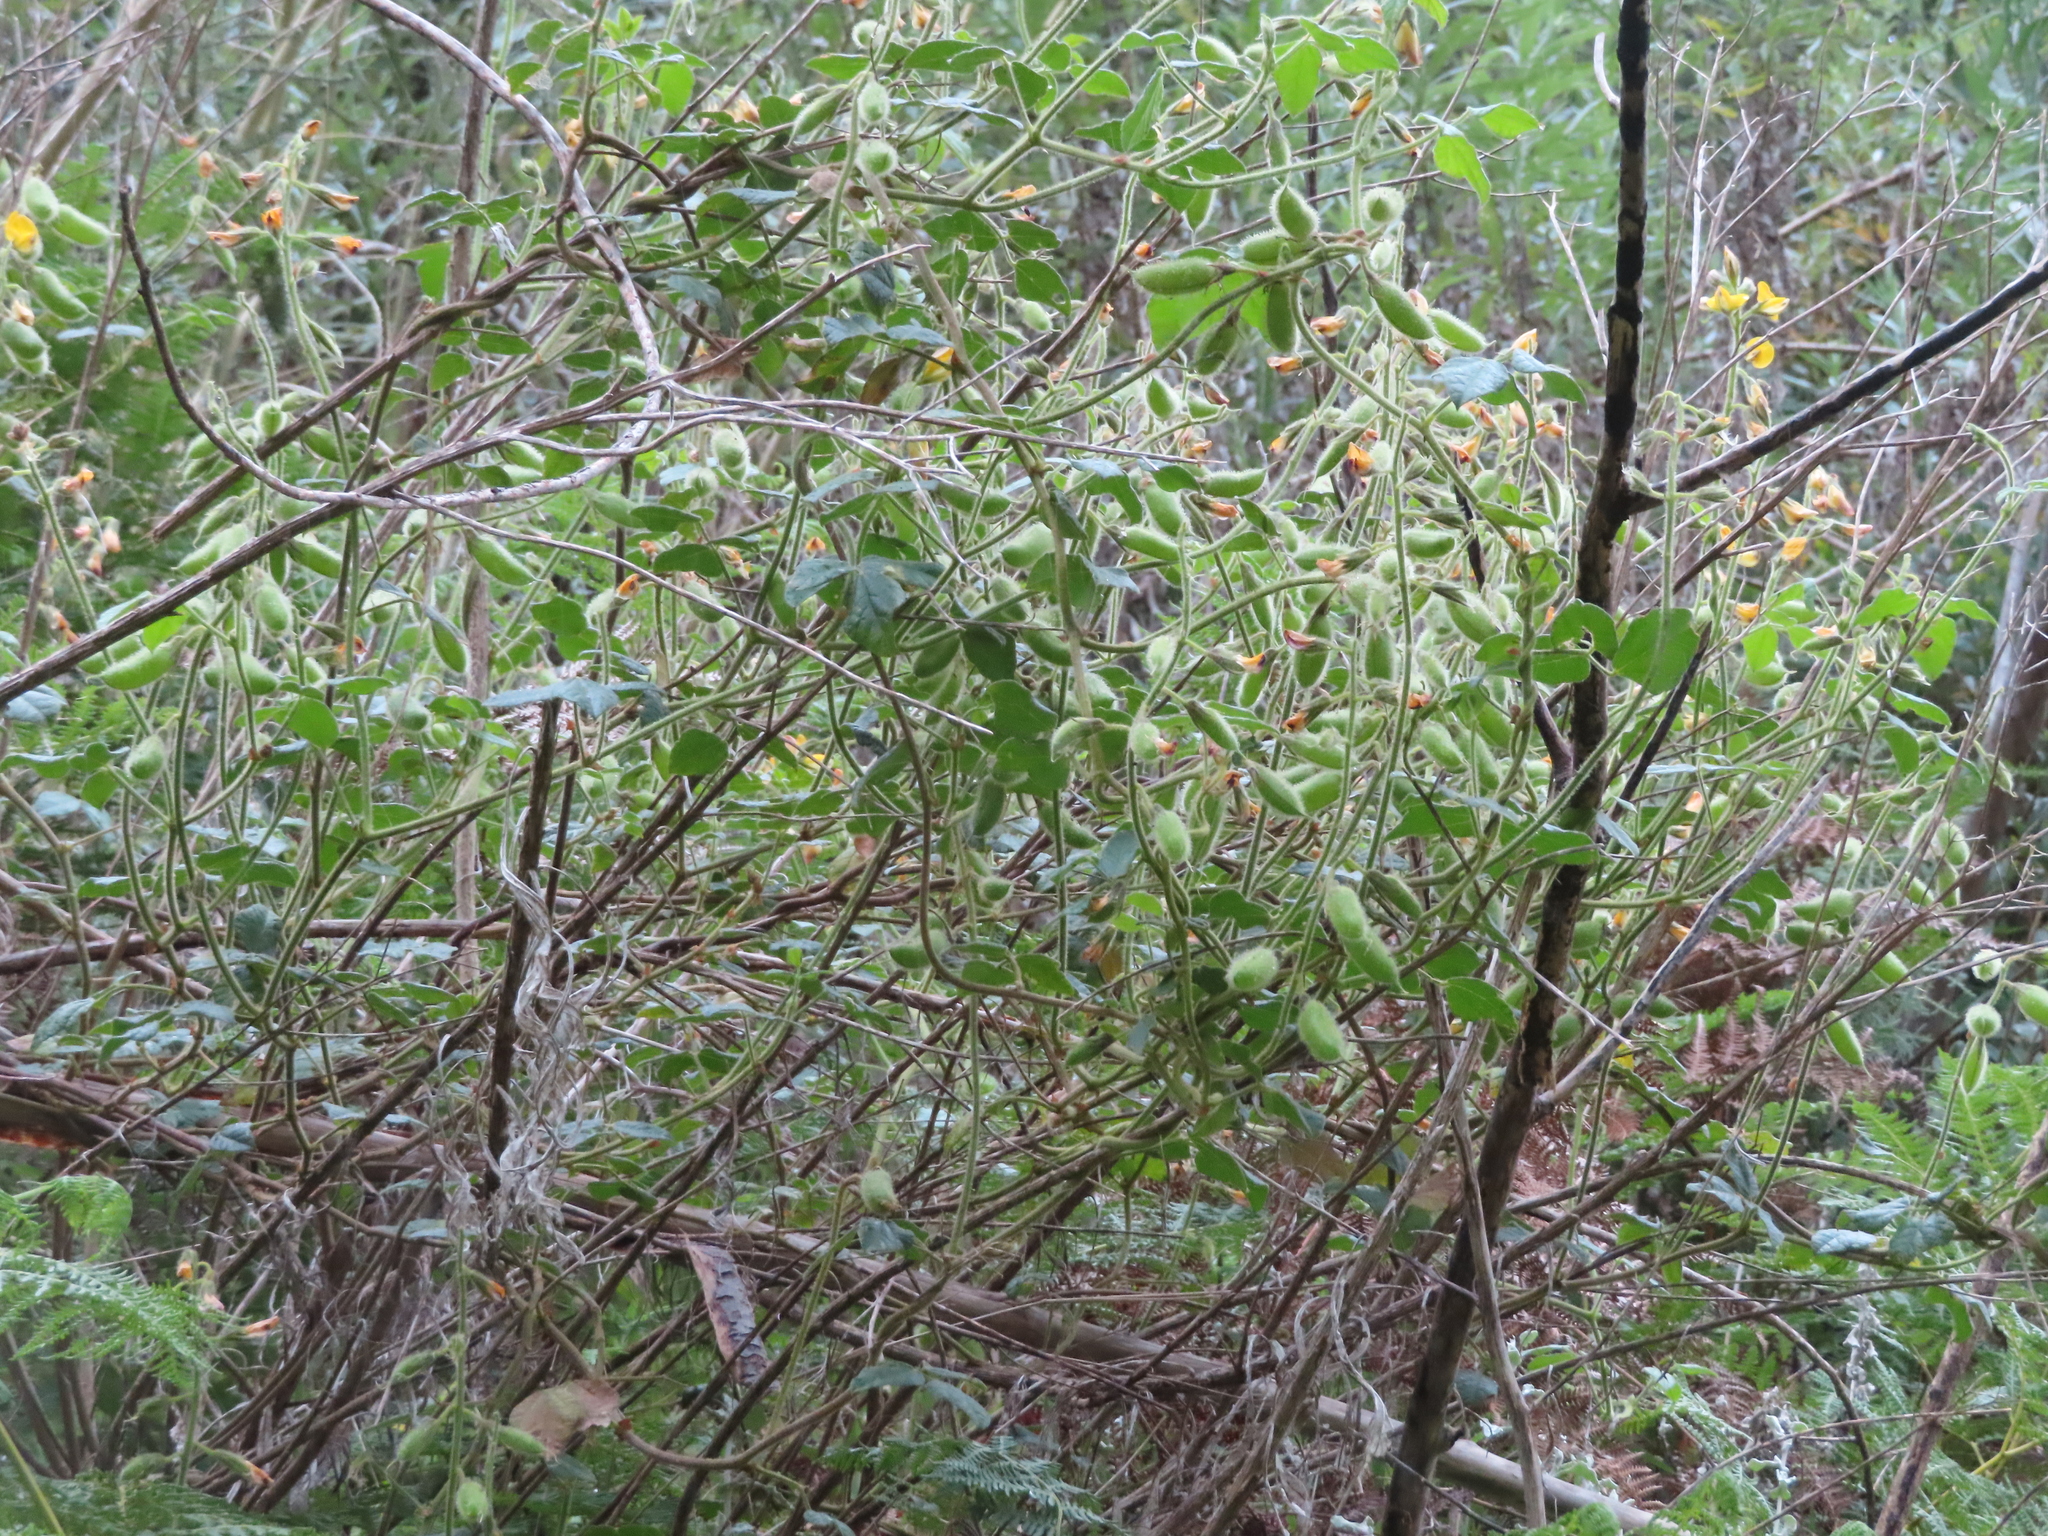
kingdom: Plantae
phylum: Tracheophyta
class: Magnoliopsida
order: Fabales
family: Fabaceae
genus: Bolusafra
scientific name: Bolusafra bituminosa
